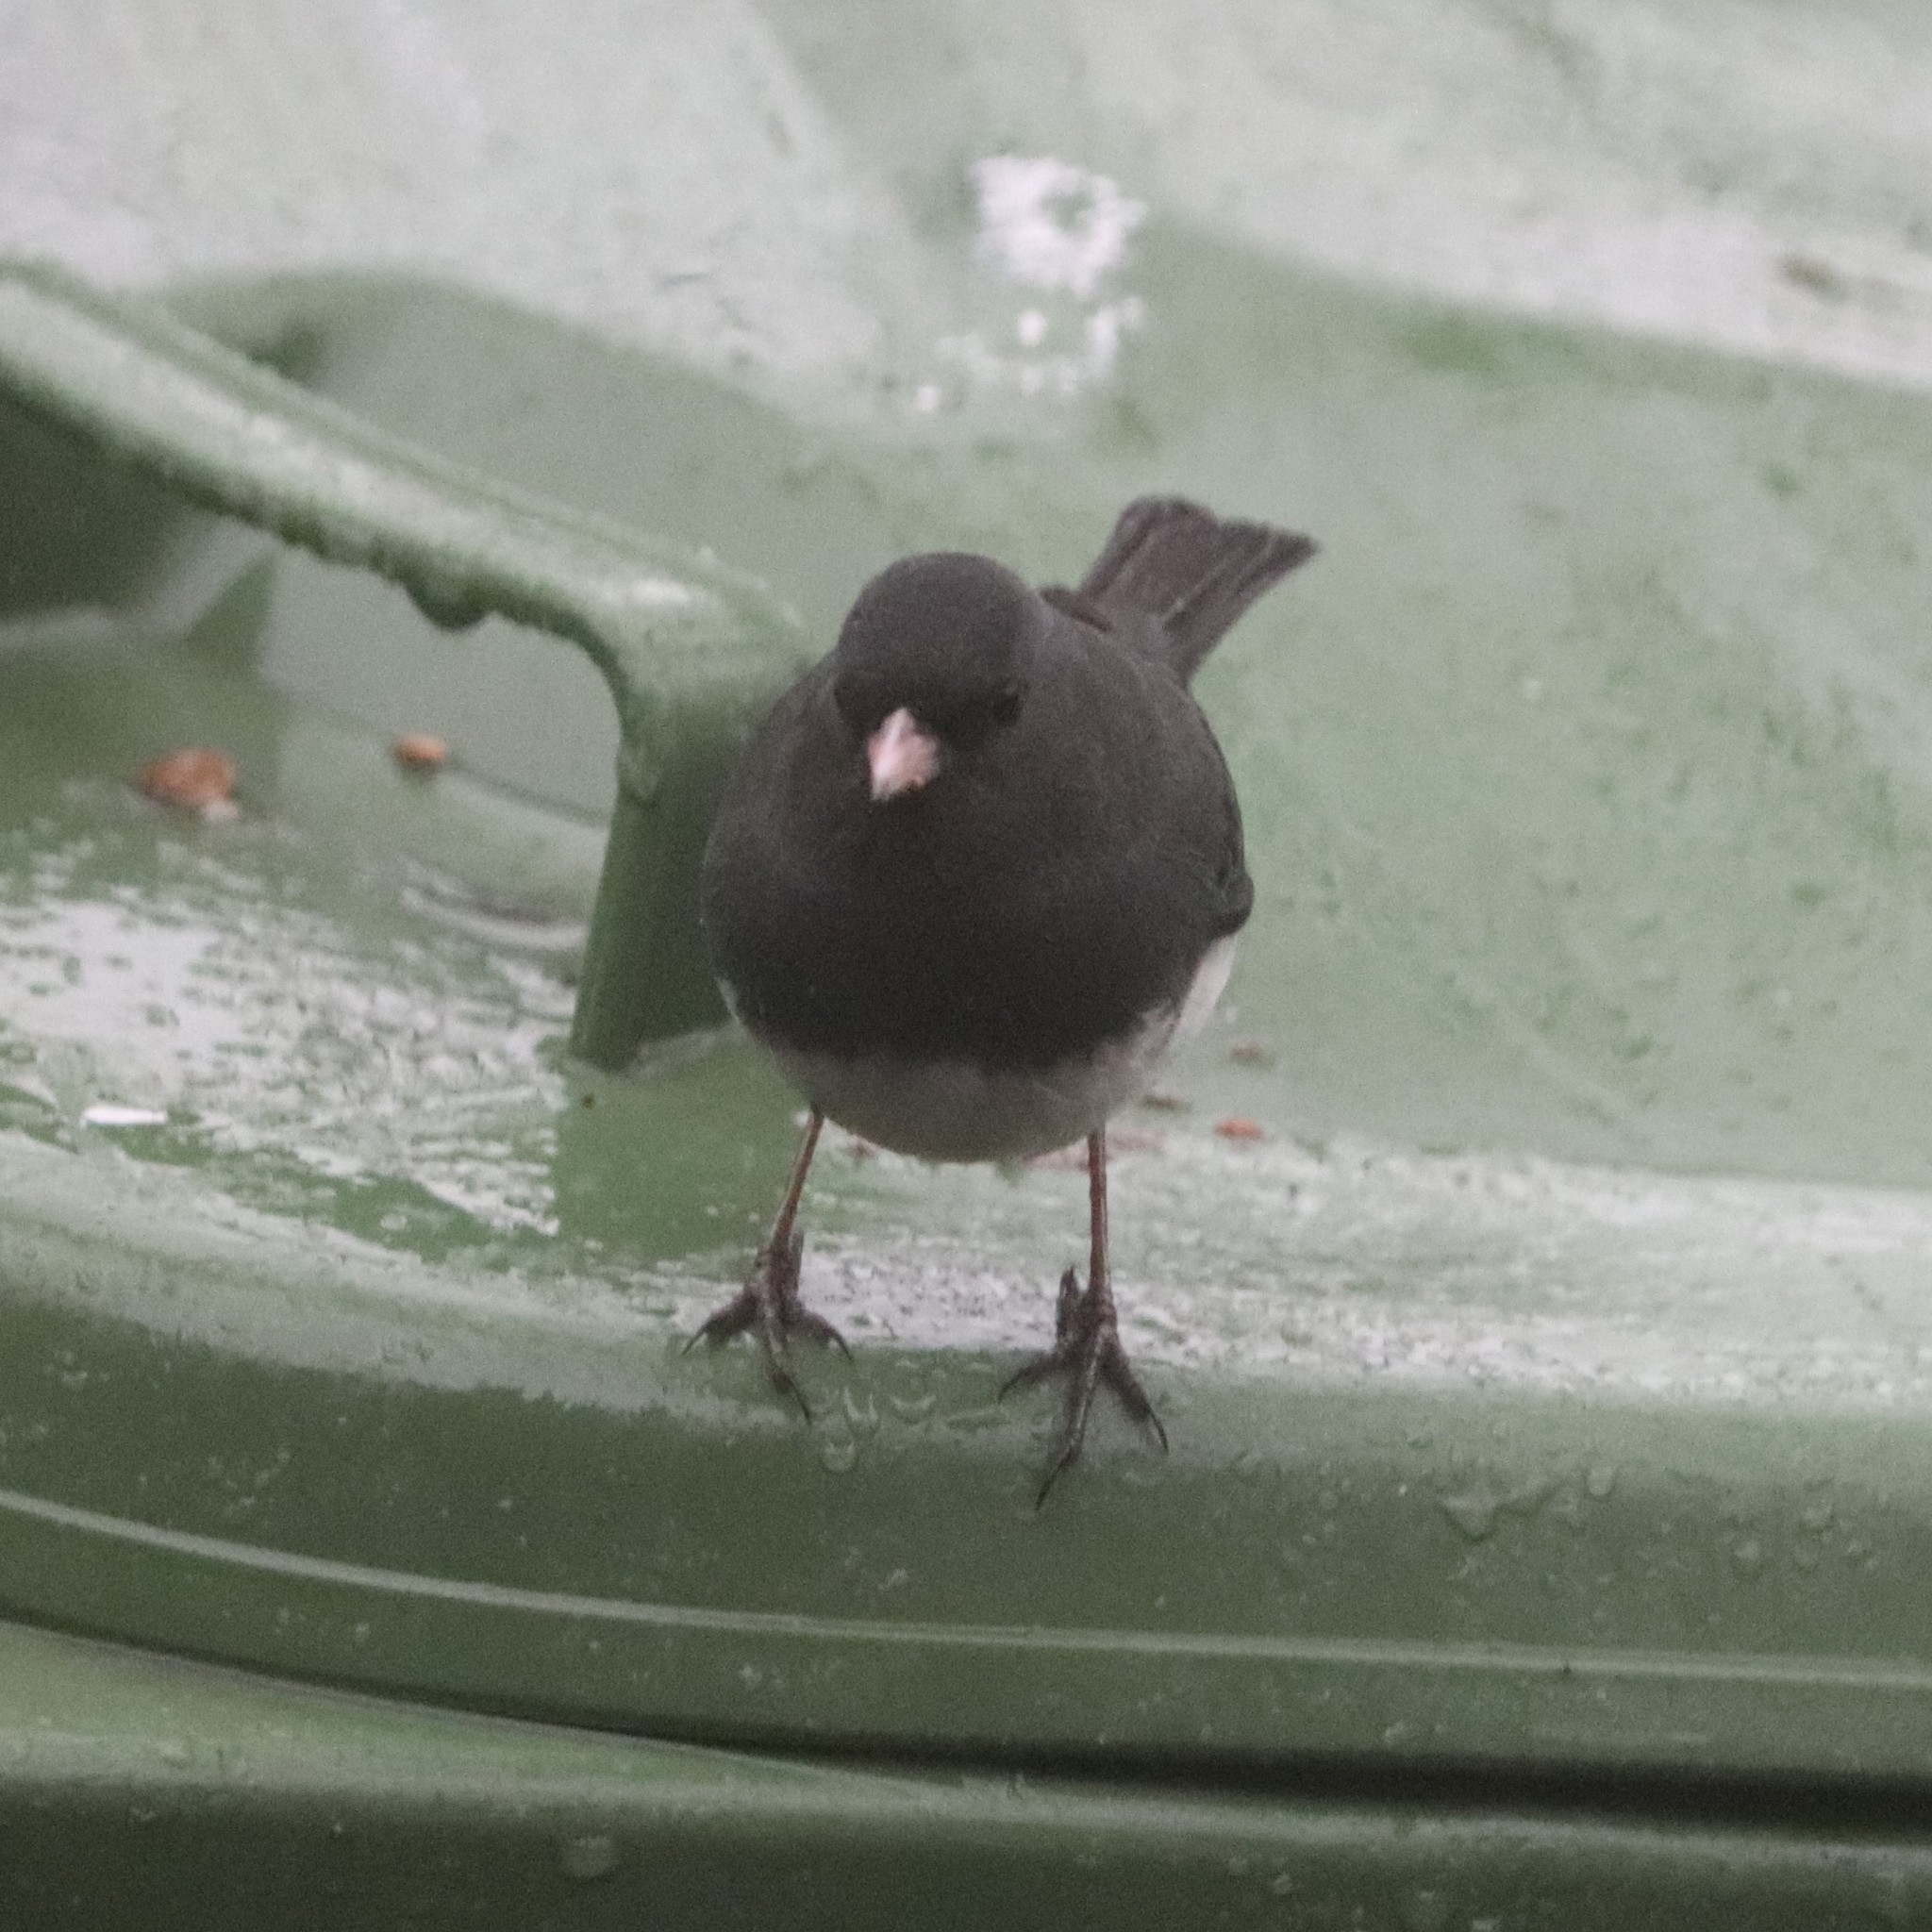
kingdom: Animalia
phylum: Chordata
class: Aves
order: Passeriformes
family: Passerellidae
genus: Junco
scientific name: Junco hyemalis
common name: Dark-eyed junco
